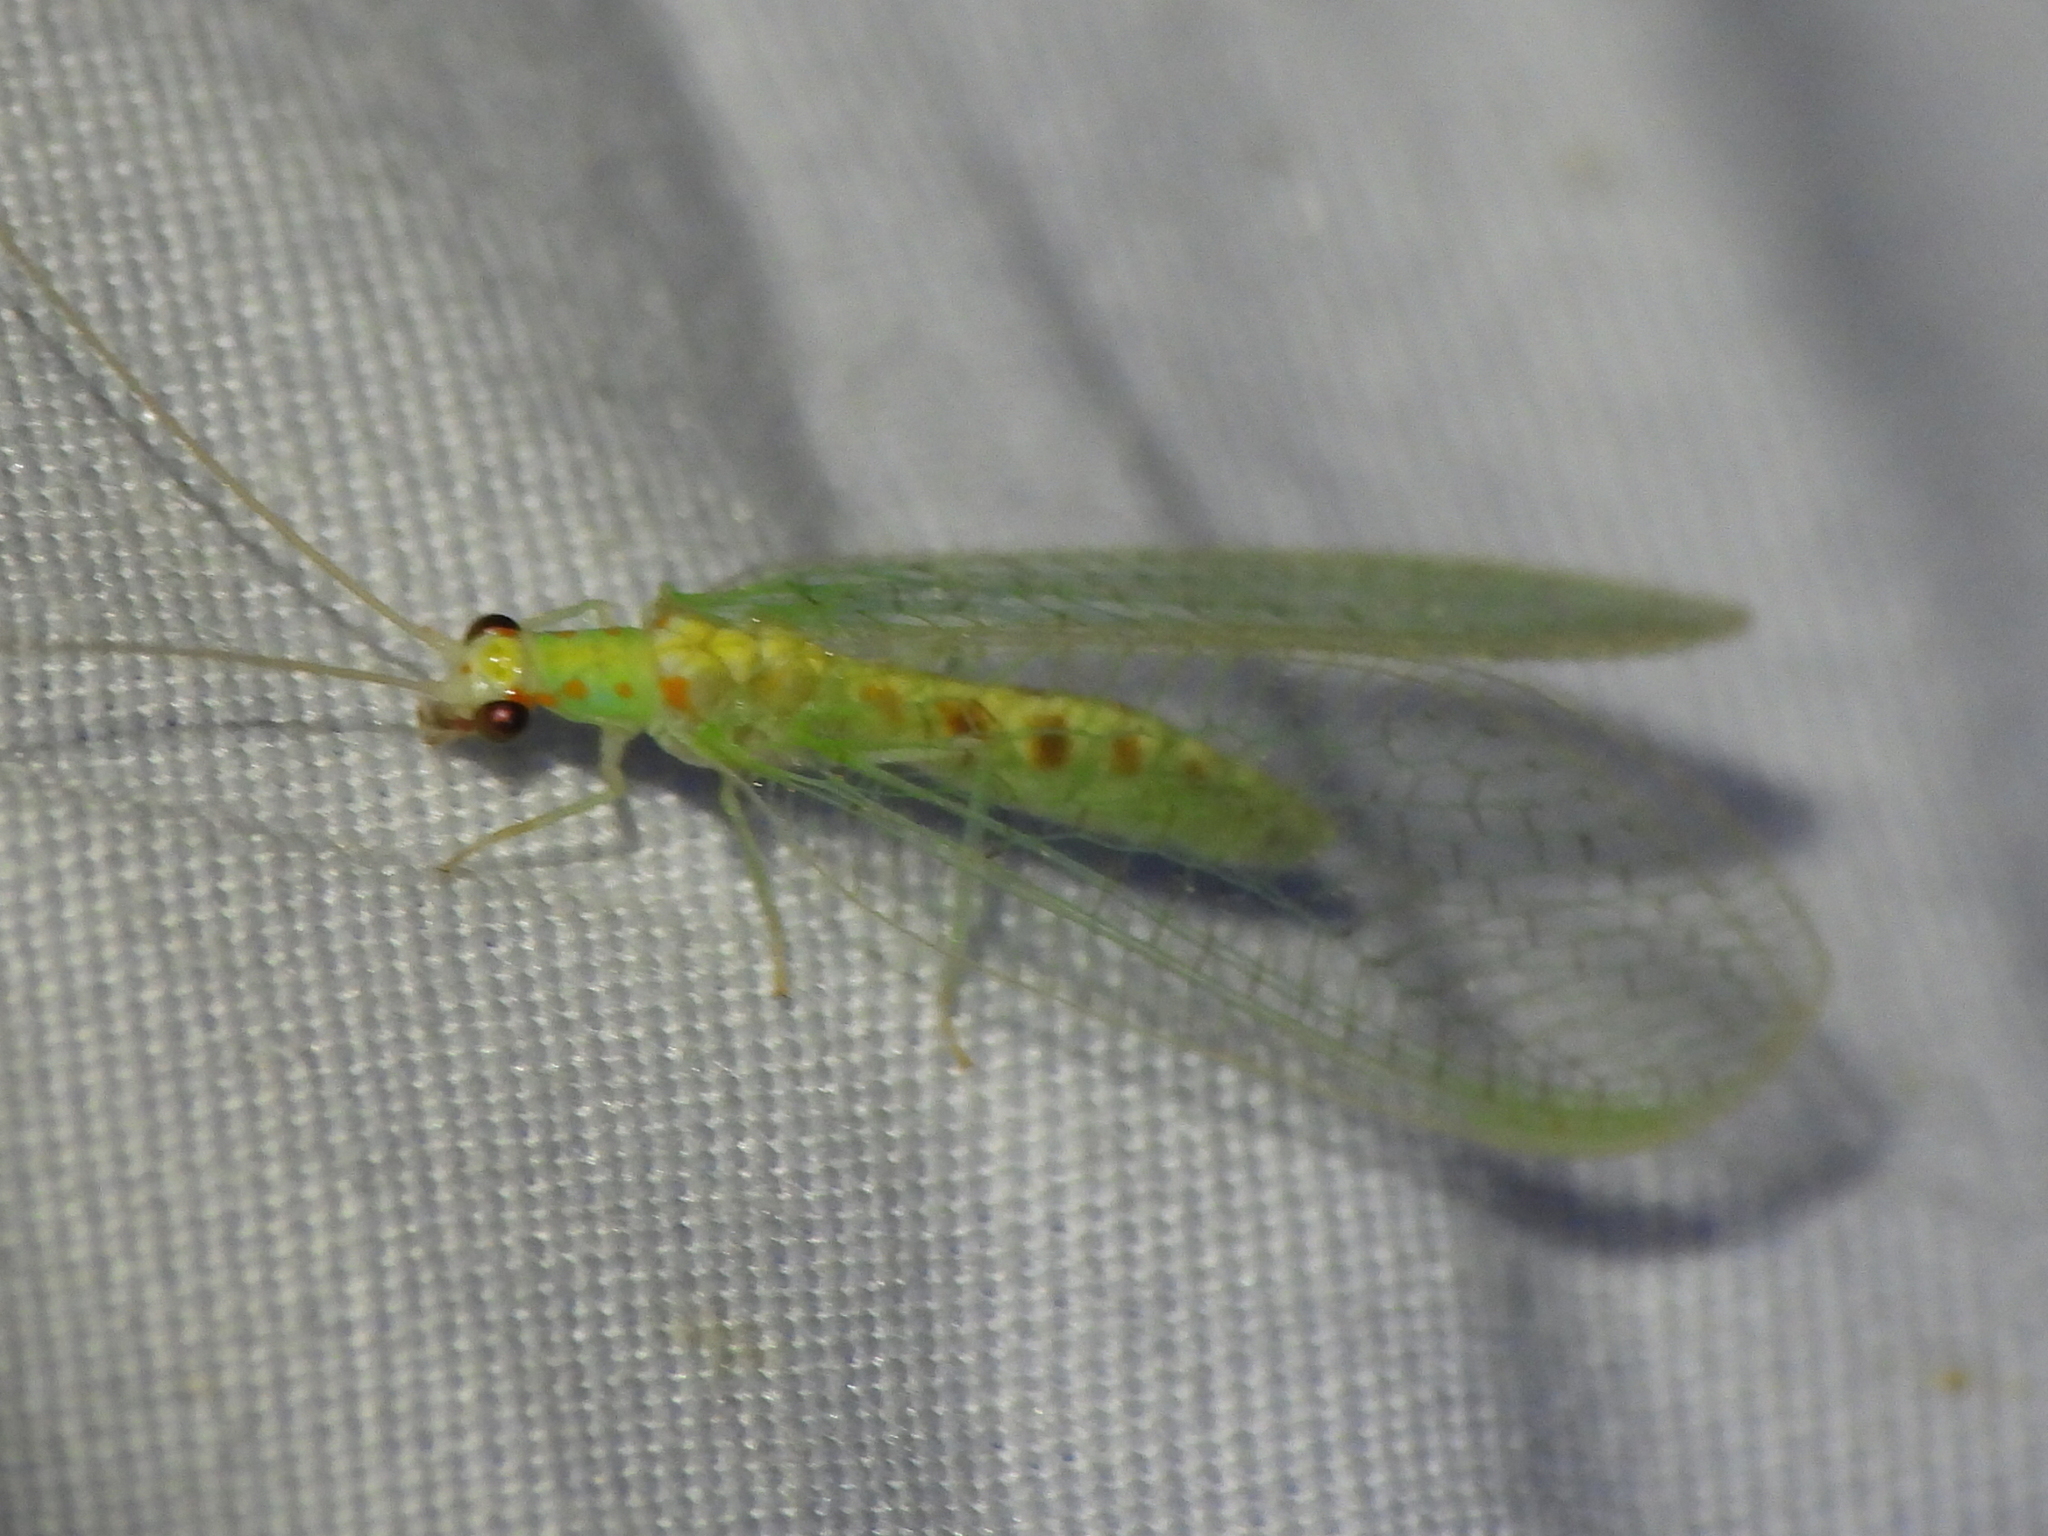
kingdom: Animalia
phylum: Arthropoda
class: Insecta
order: Neuroptera
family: Chrysopidae
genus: Chrysopa
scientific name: Chrysopa quadripunctata
